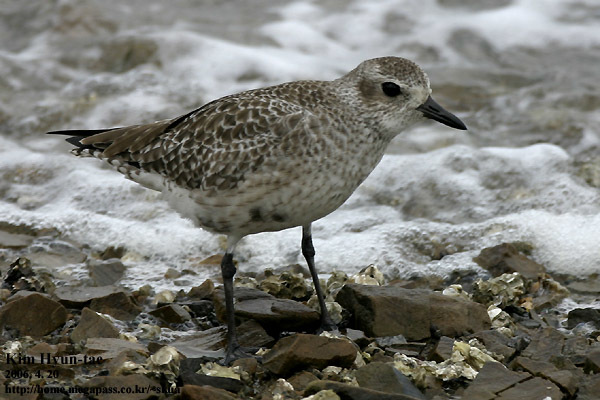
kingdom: Animalia
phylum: Chordata
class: Aves
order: Charadriiformes
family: Charadriidae
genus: Pluvialis
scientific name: Pluvialis squatarola
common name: Grey plover
